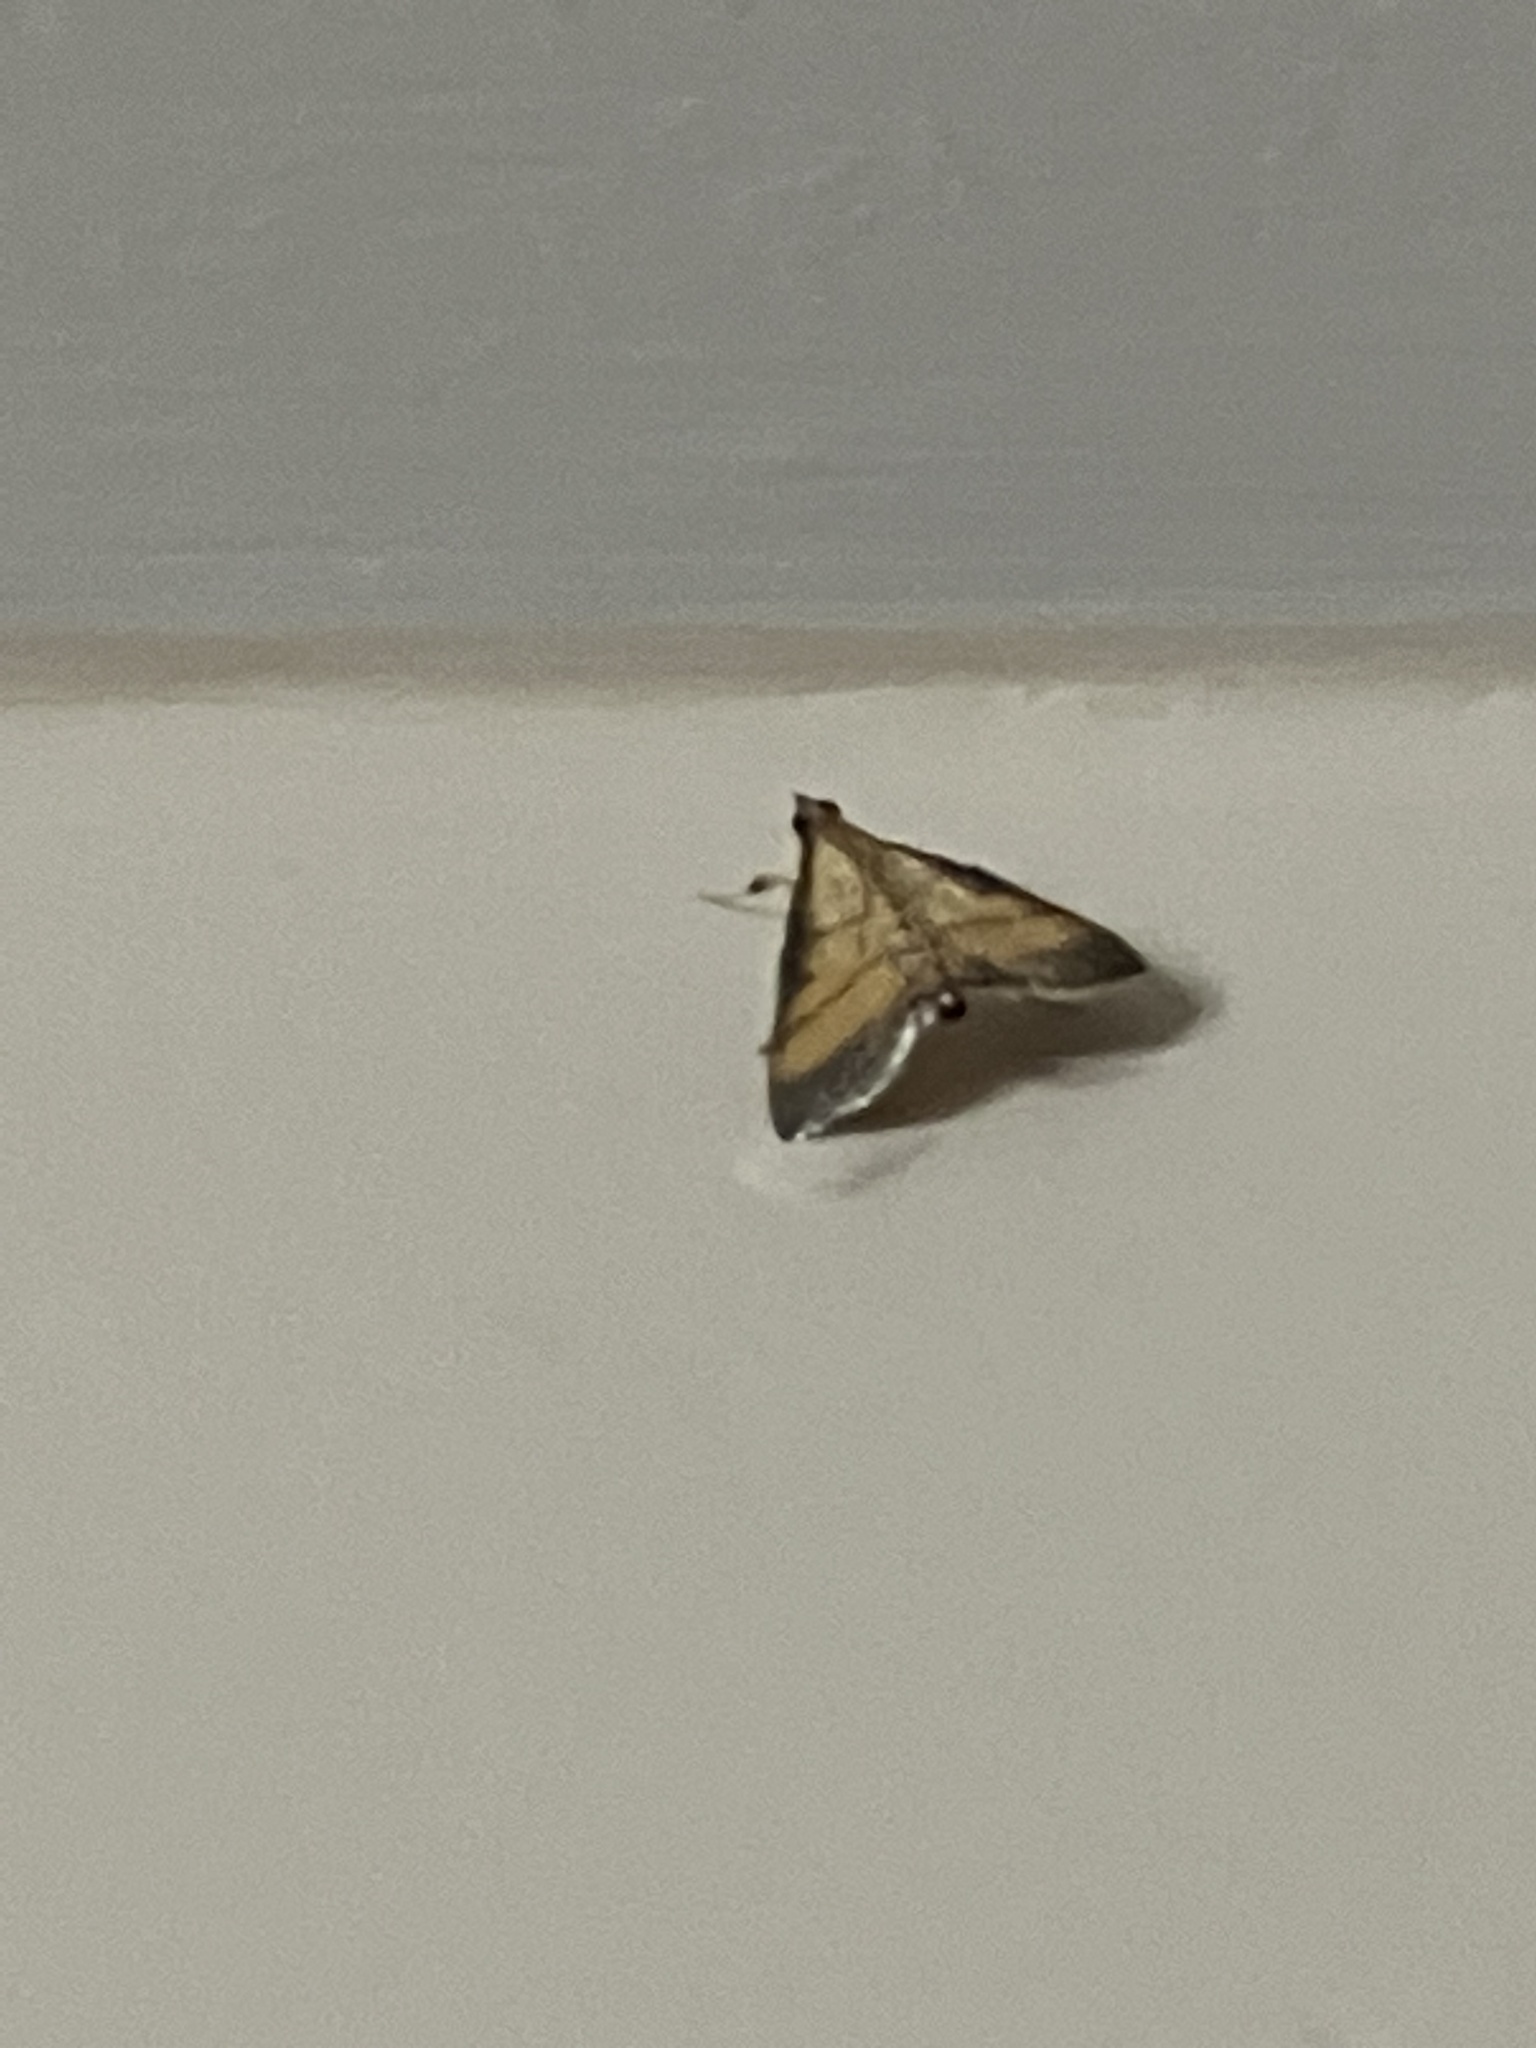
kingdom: Animalia
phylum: Arthropoda
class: Insecta
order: Lepidoptera
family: Crambidae
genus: Cnaphalocrocis
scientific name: Cnaphalocrocis medinalis
